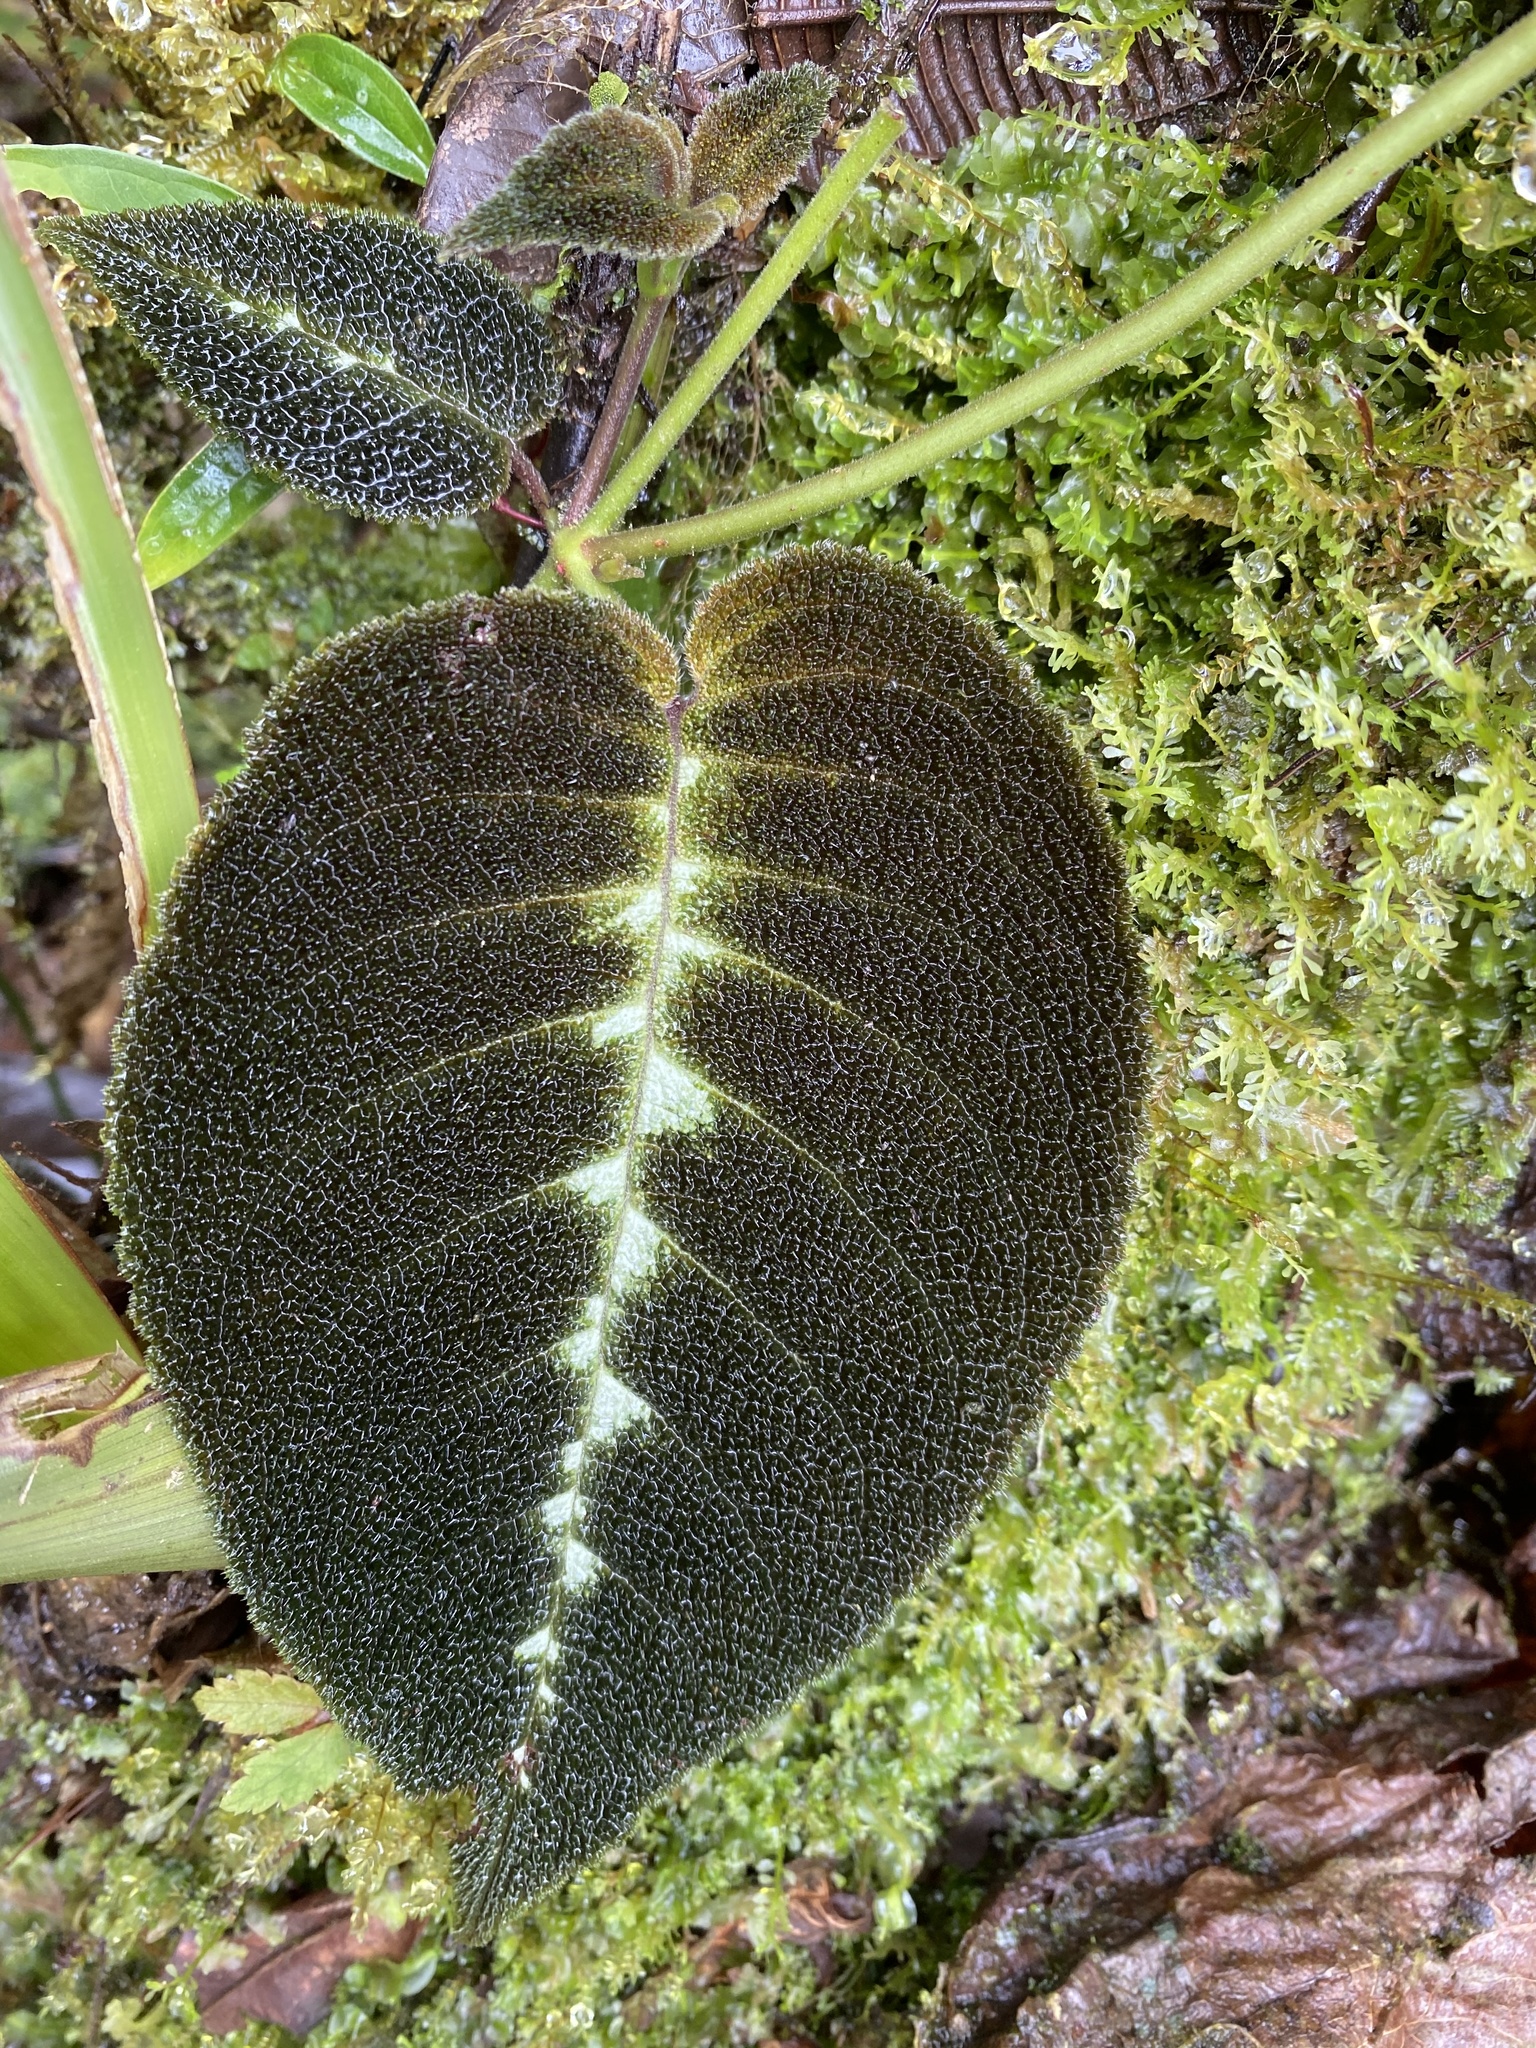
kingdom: Plantae
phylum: Tracheophyta
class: Magnoliopsida
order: Lamiales
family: Gesneriaceae
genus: Drymonia
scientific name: Drymonia variegata
